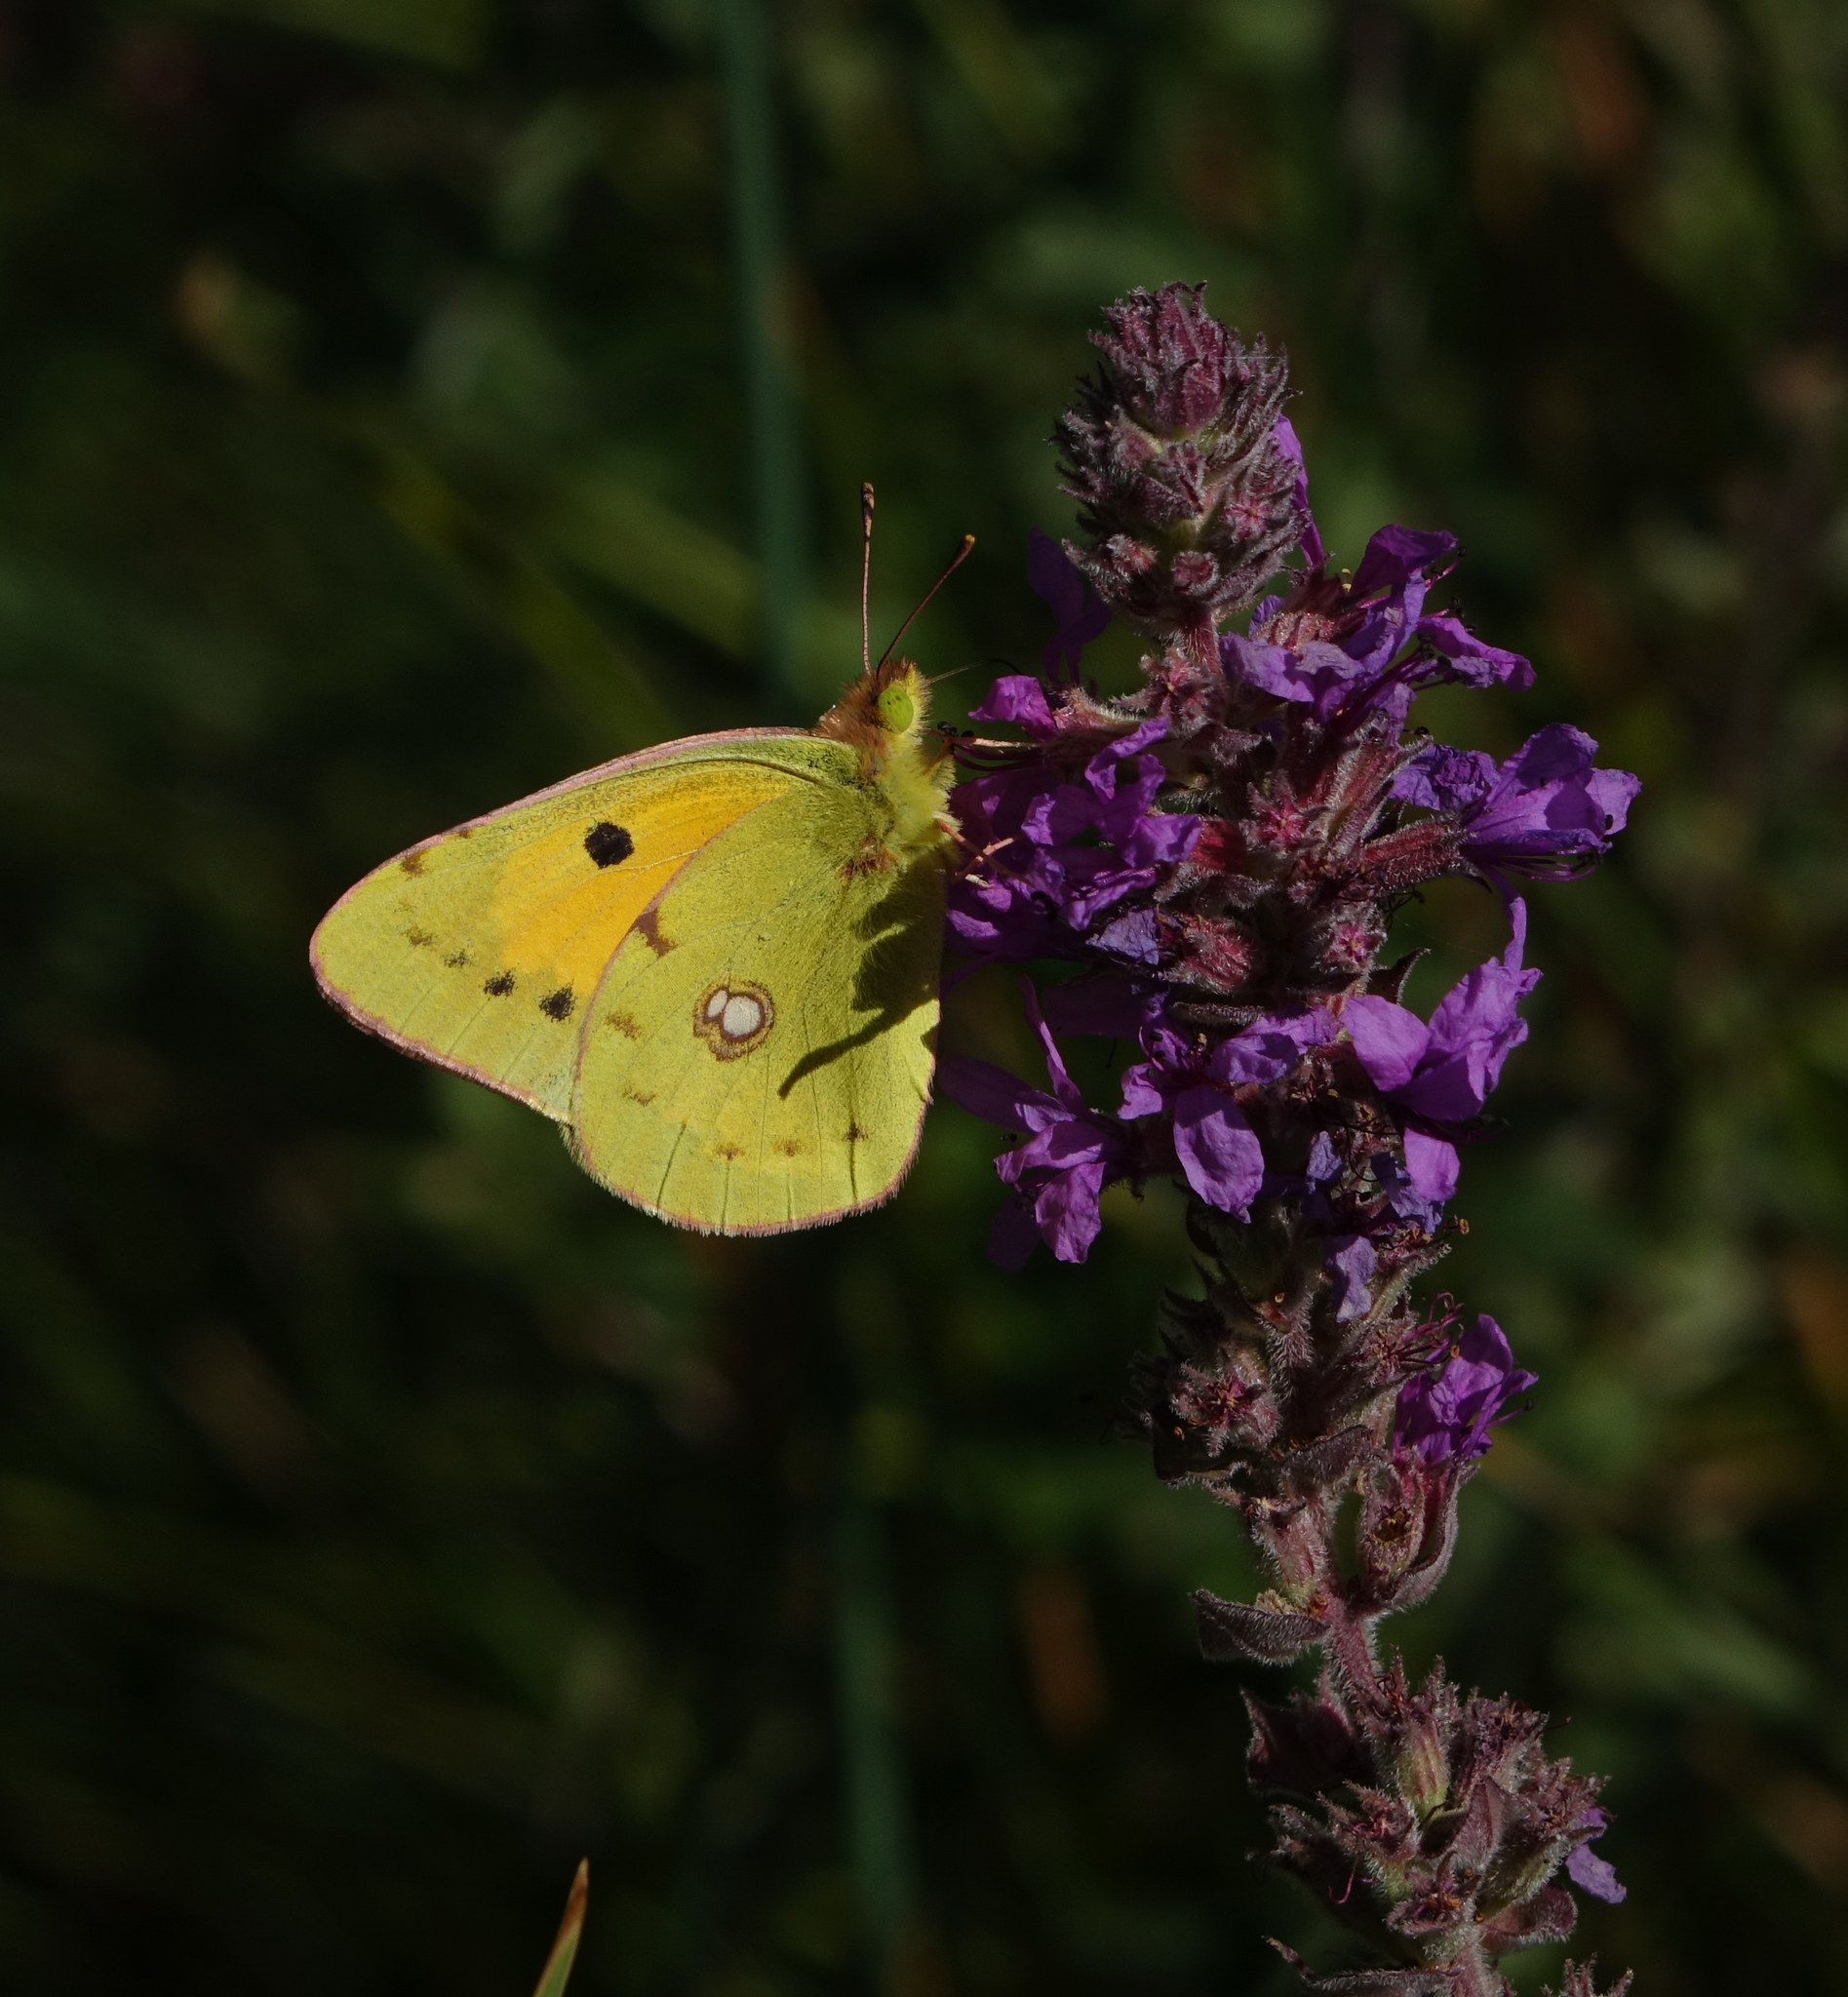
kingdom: Animalia
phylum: Arthropoda
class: Insecta
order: Lepidoptera
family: Pieridae
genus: Colias
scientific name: Colias croceus
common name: Clouded yellow
